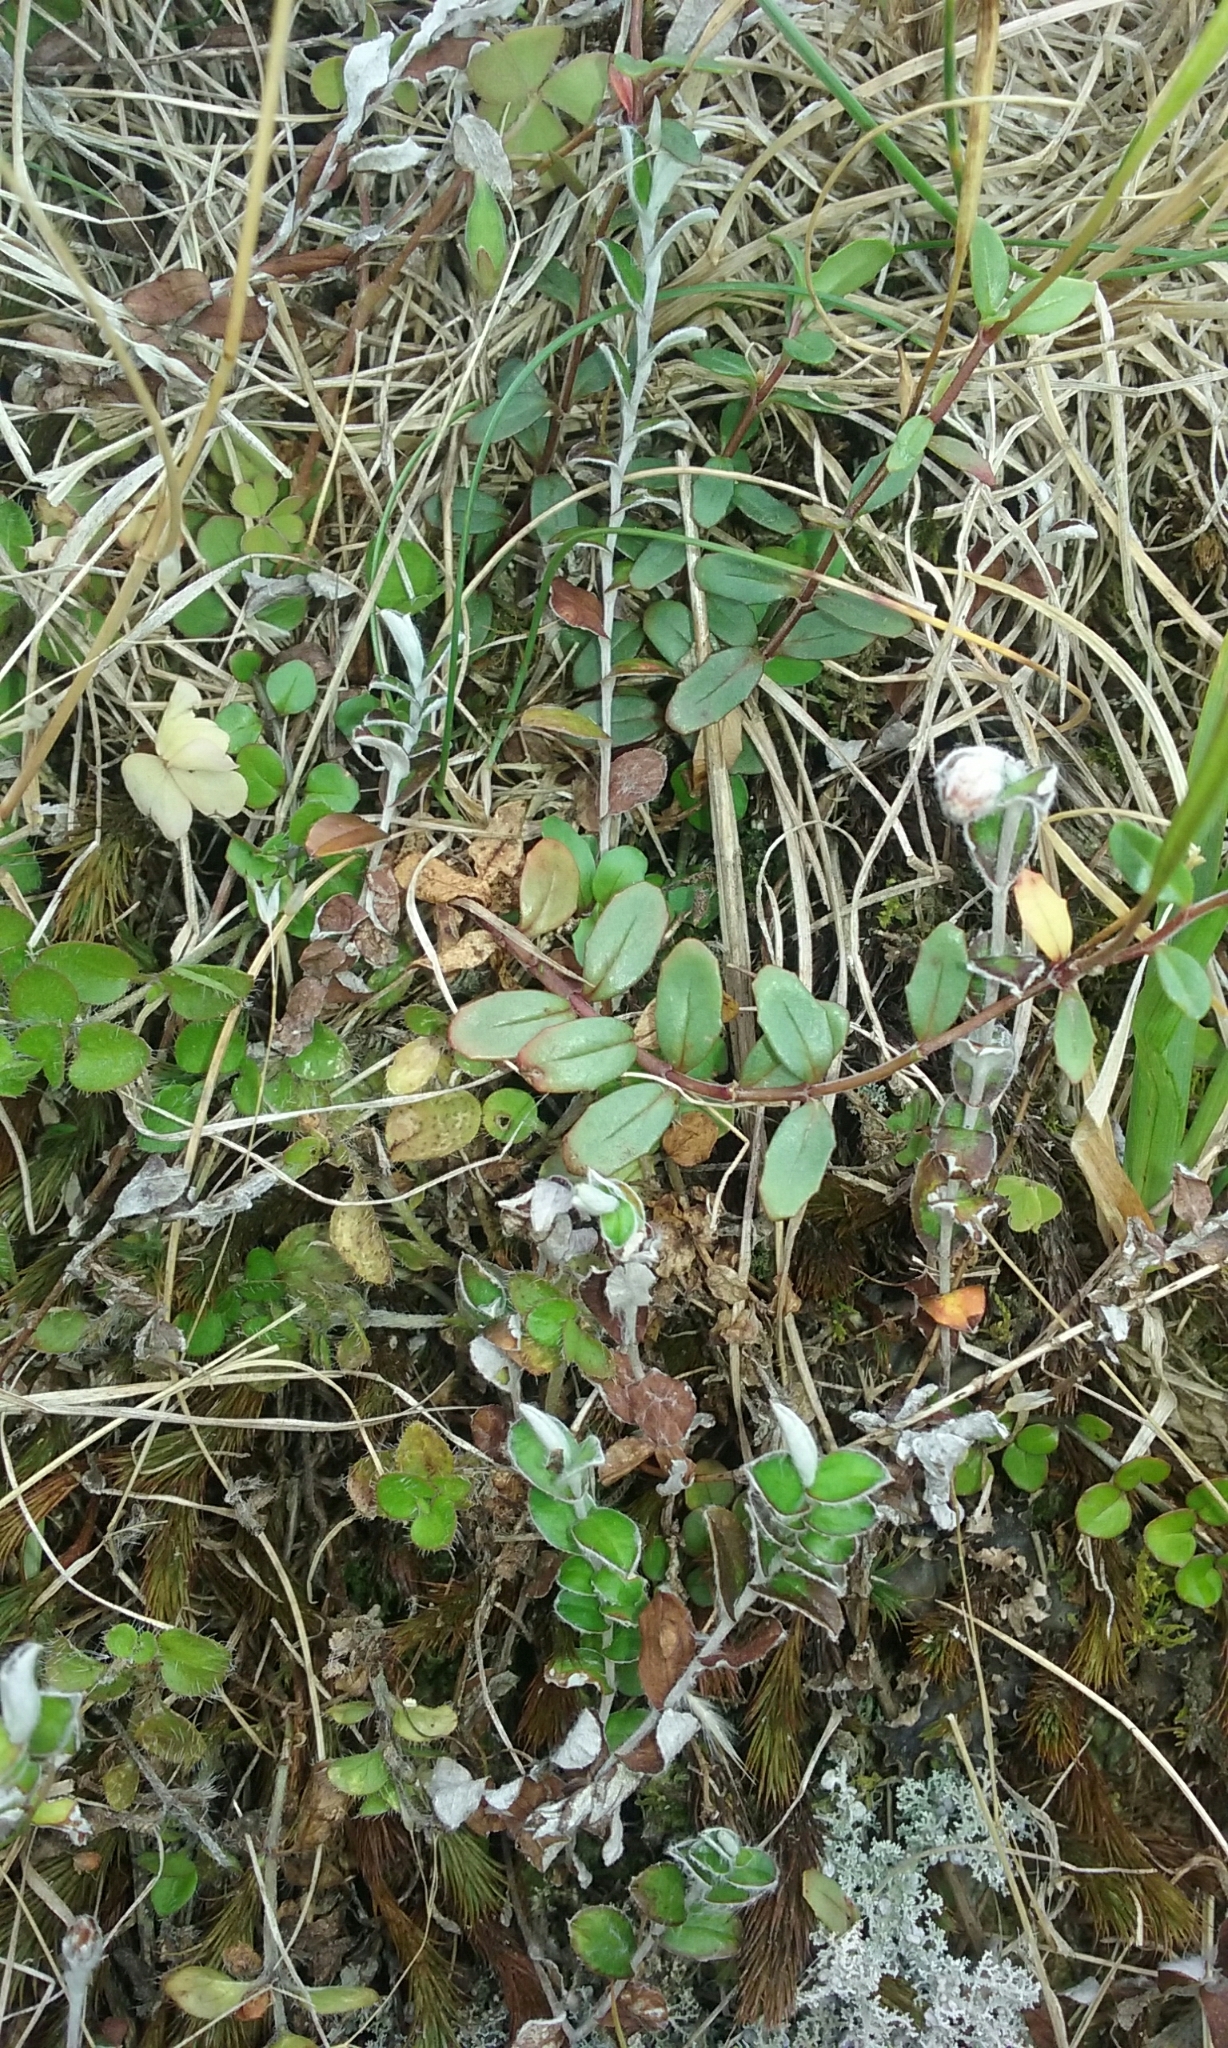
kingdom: Plantae
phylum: Tracheophyta
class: Magnoliopsida
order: Myrtales
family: Onagraceae
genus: Epilobium
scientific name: Epilobium alsinoides
